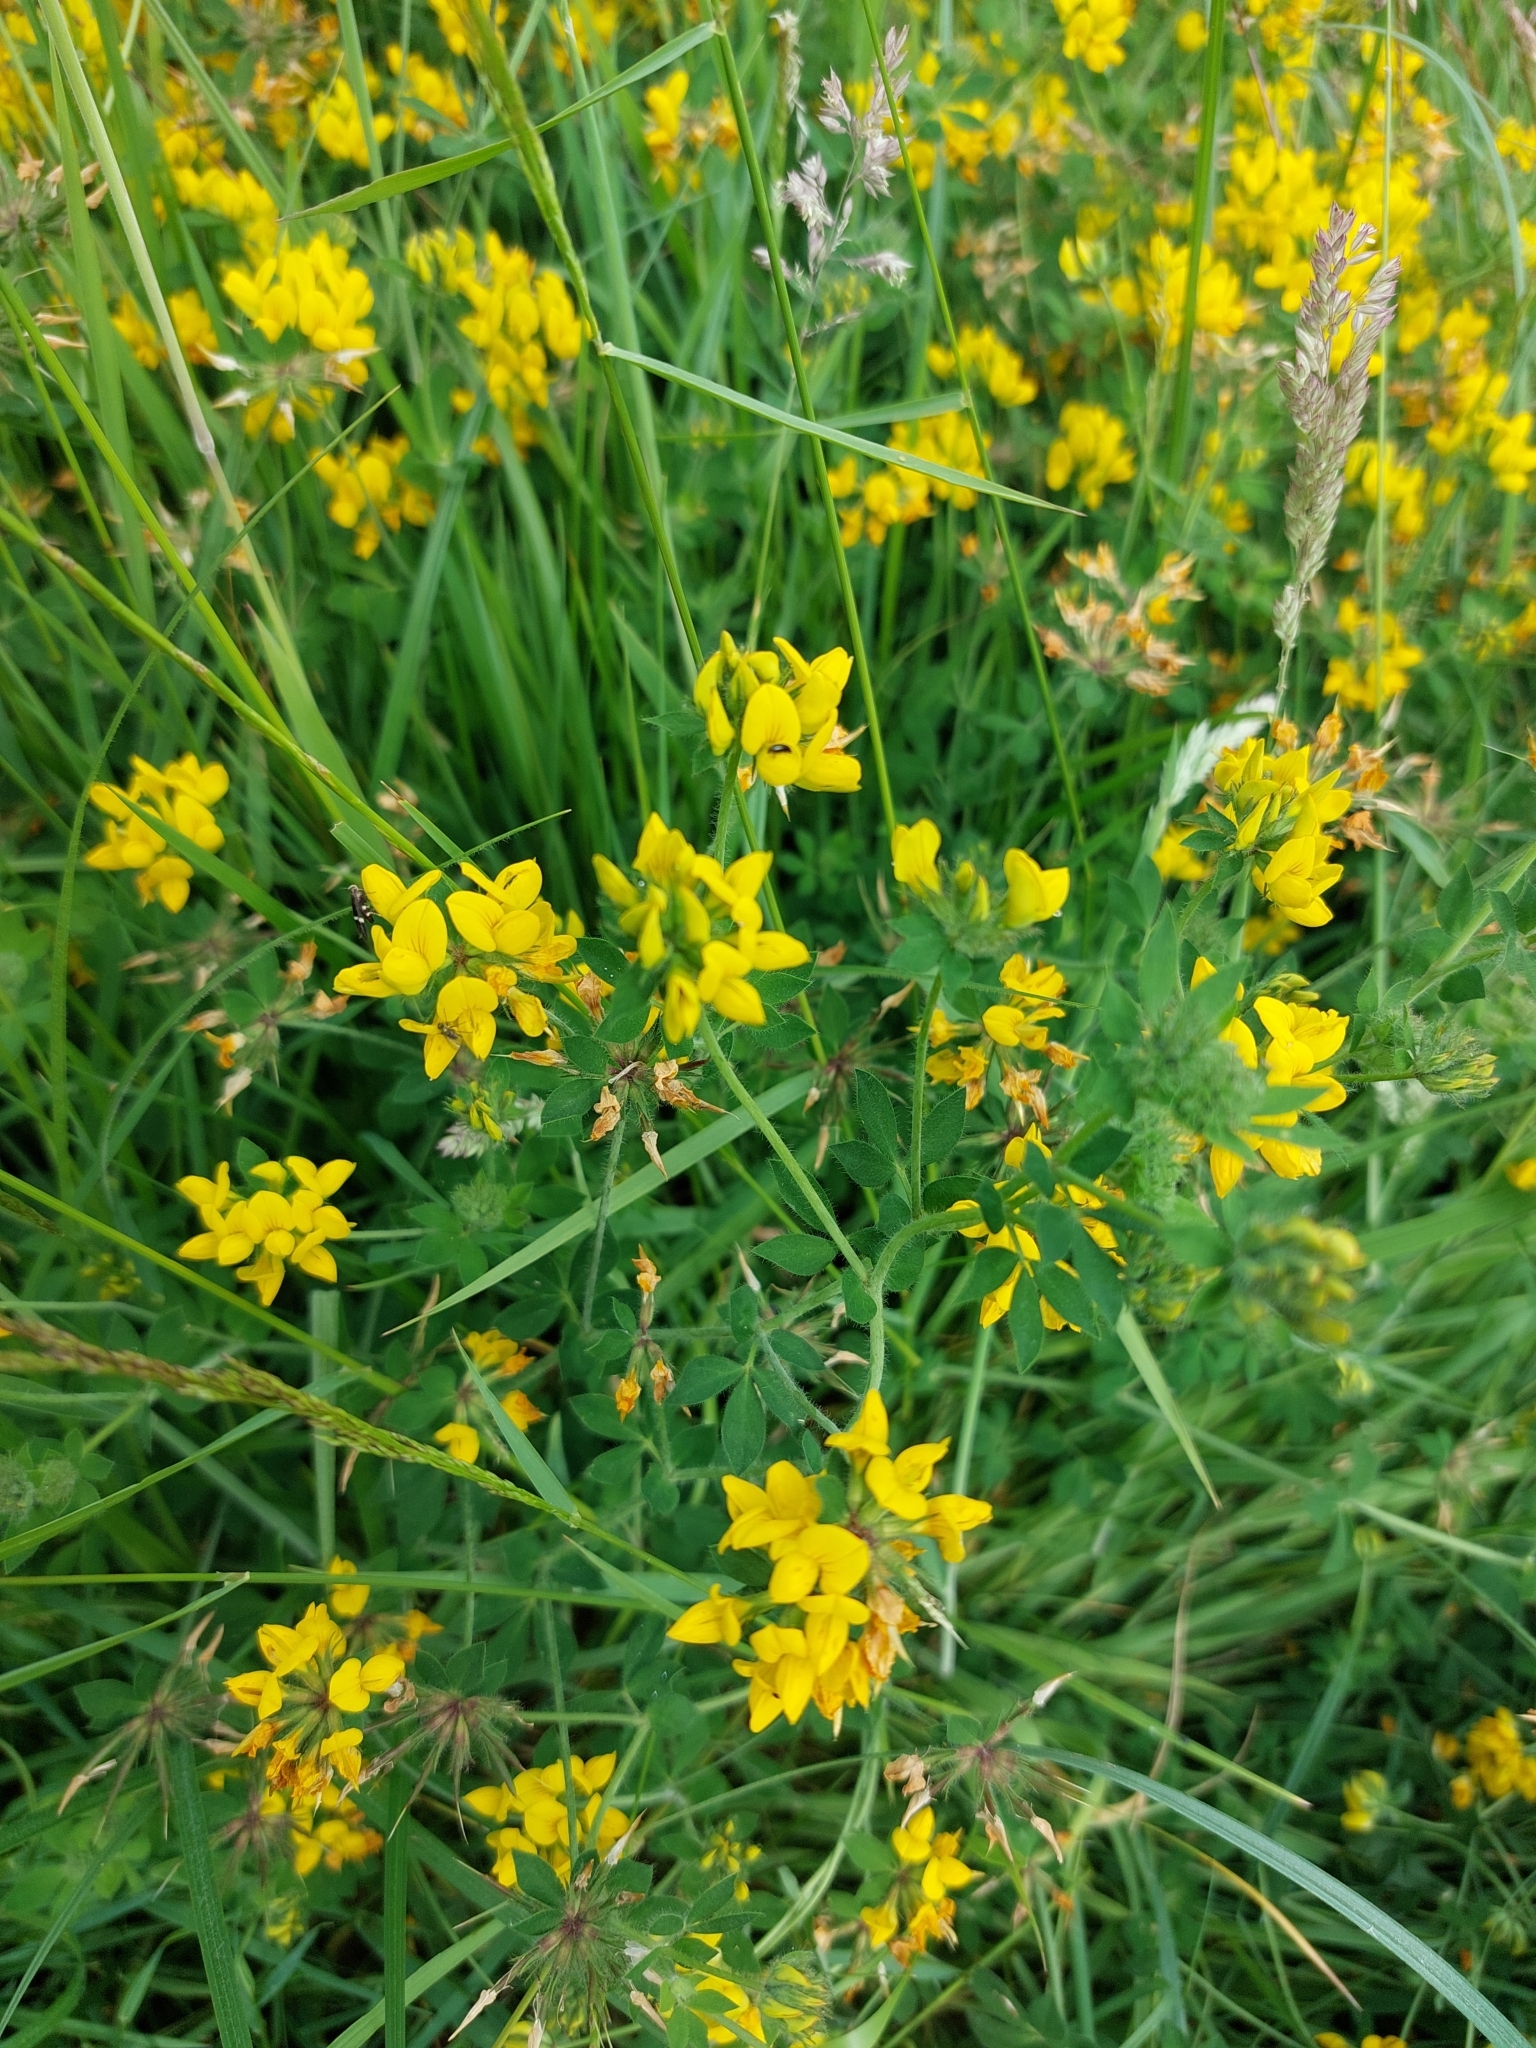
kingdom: Plantae
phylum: Tracheophyta
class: Magnoliopsida
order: Fabales
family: Fabaceae
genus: Lotus
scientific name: Lotus pedunculatus
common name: Greater birdsfoot-trefoil
